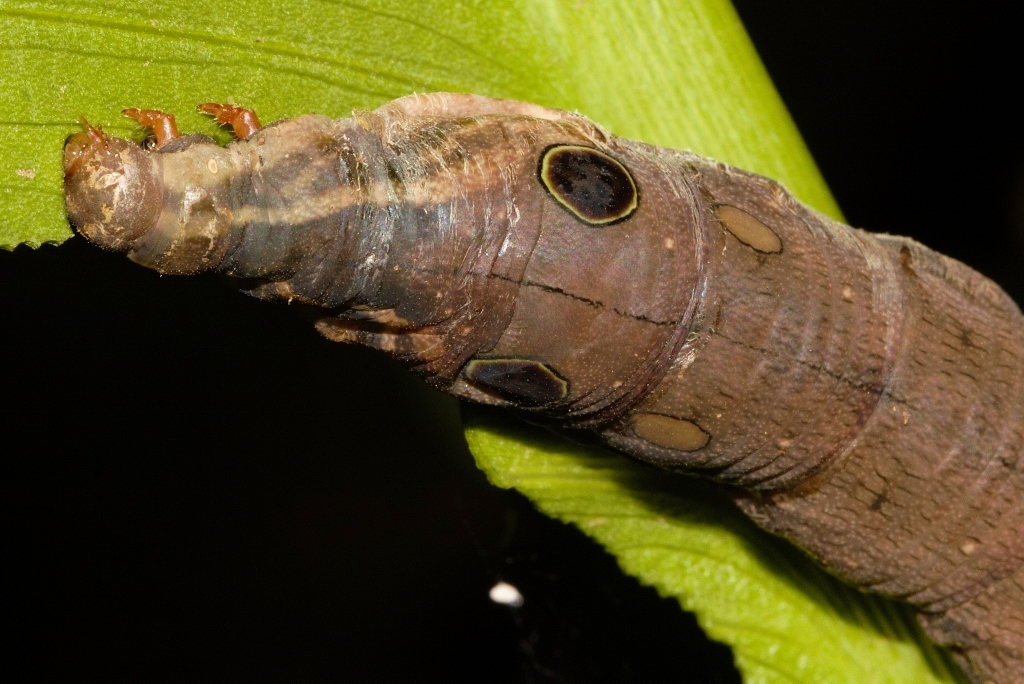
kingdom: Animalia
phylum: Arthropoda
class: Insecta
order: Lepidoptera
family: Sphingidae
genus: Hippotion
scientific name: Hippotion eson
